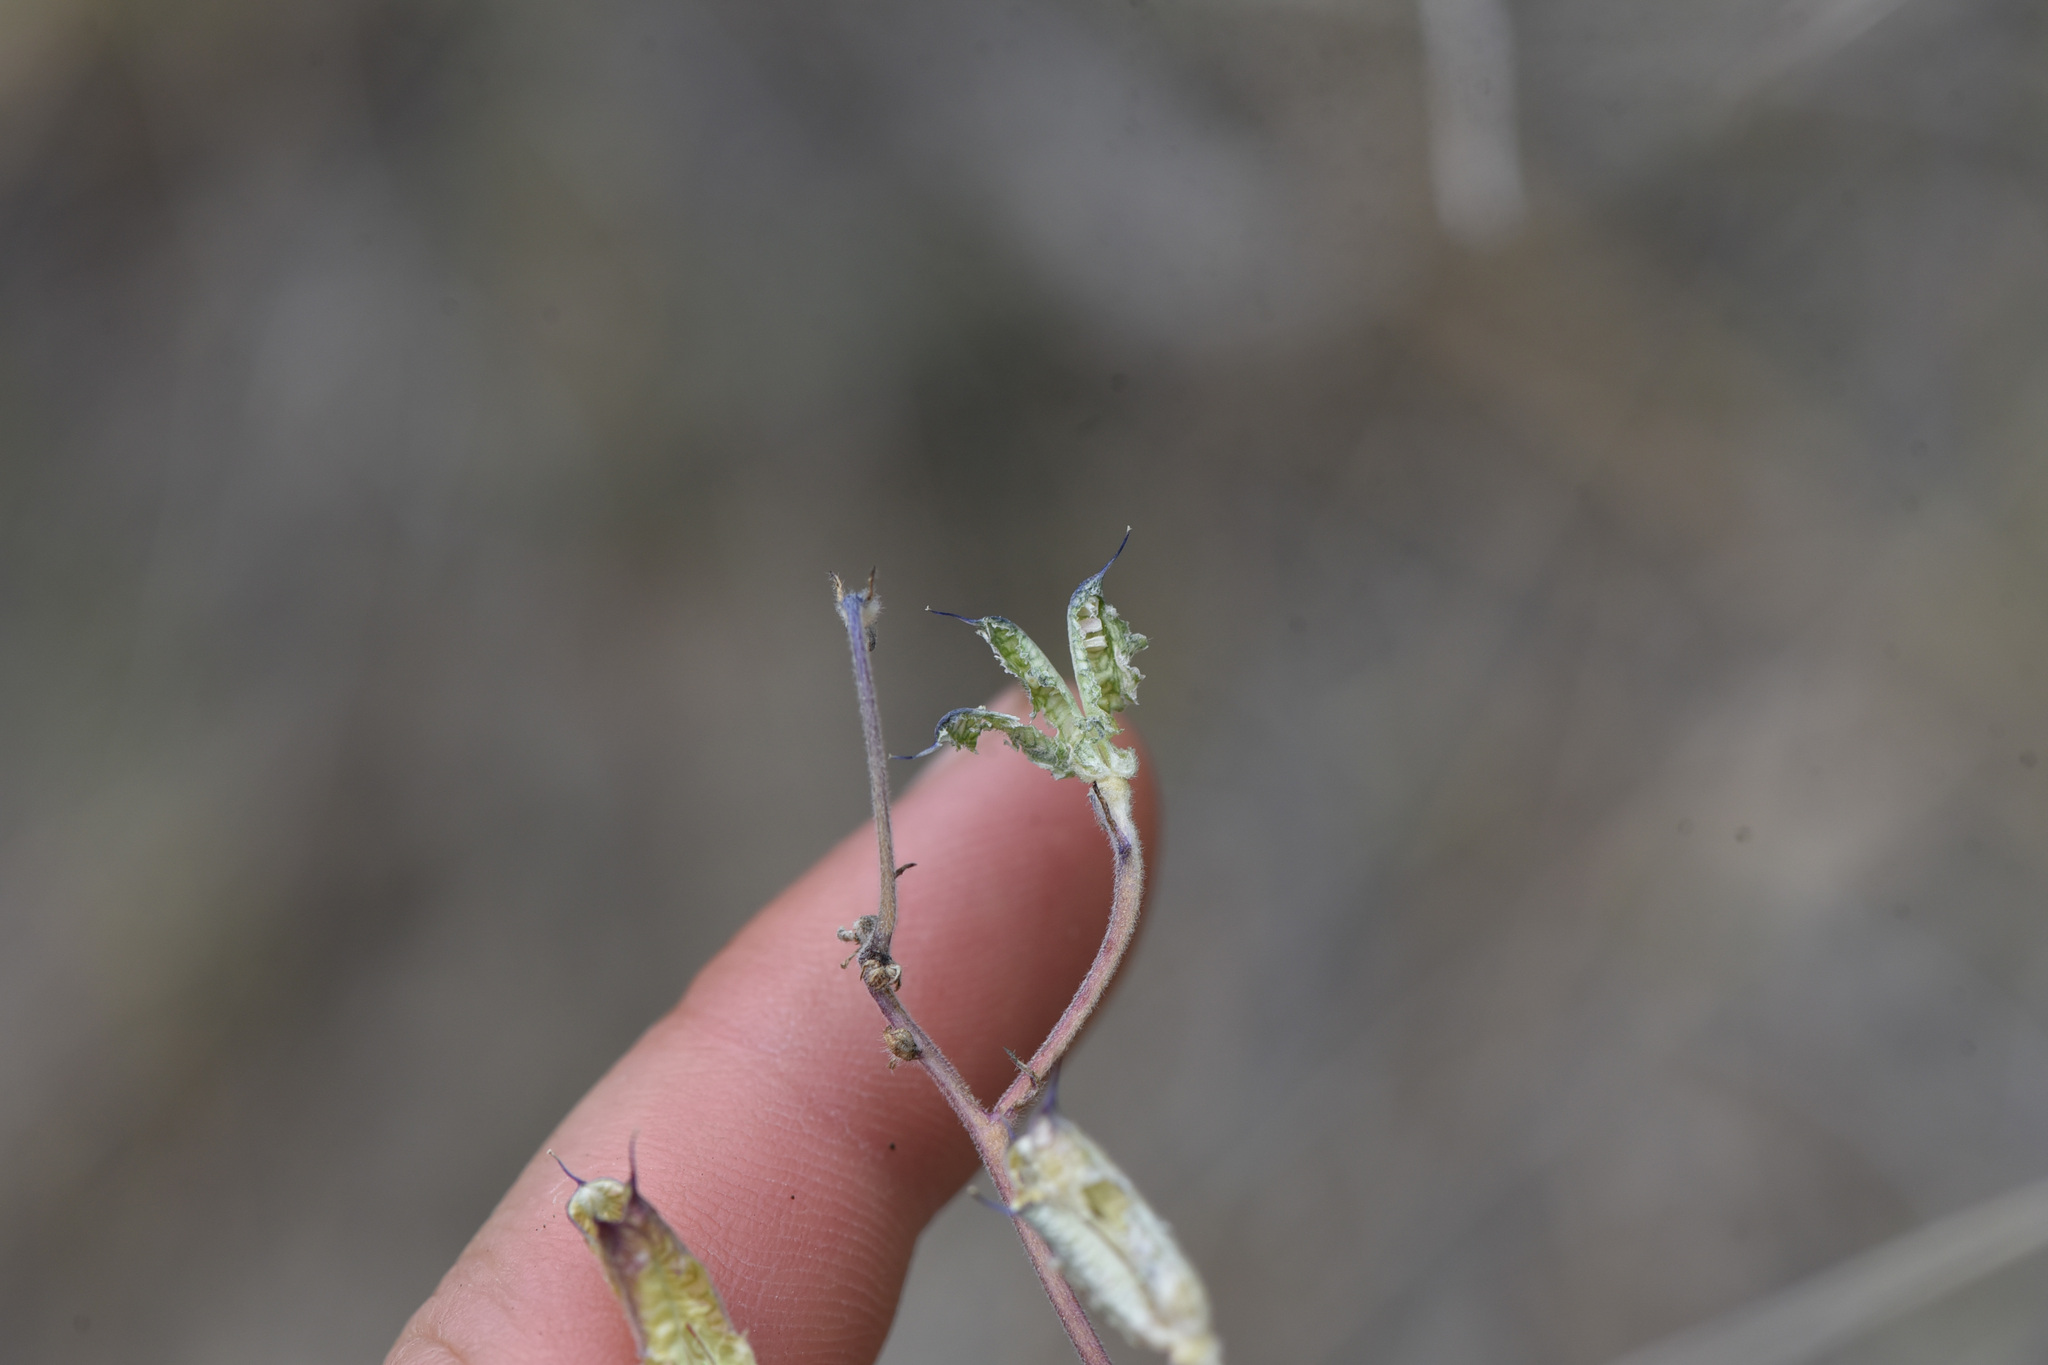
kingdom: Plantae
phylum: Tracheophyta
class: Magnoliopsida
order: Ranunculales
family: Ranunculaceae
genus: Delphinium
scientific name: Delphinium nuttallianum
